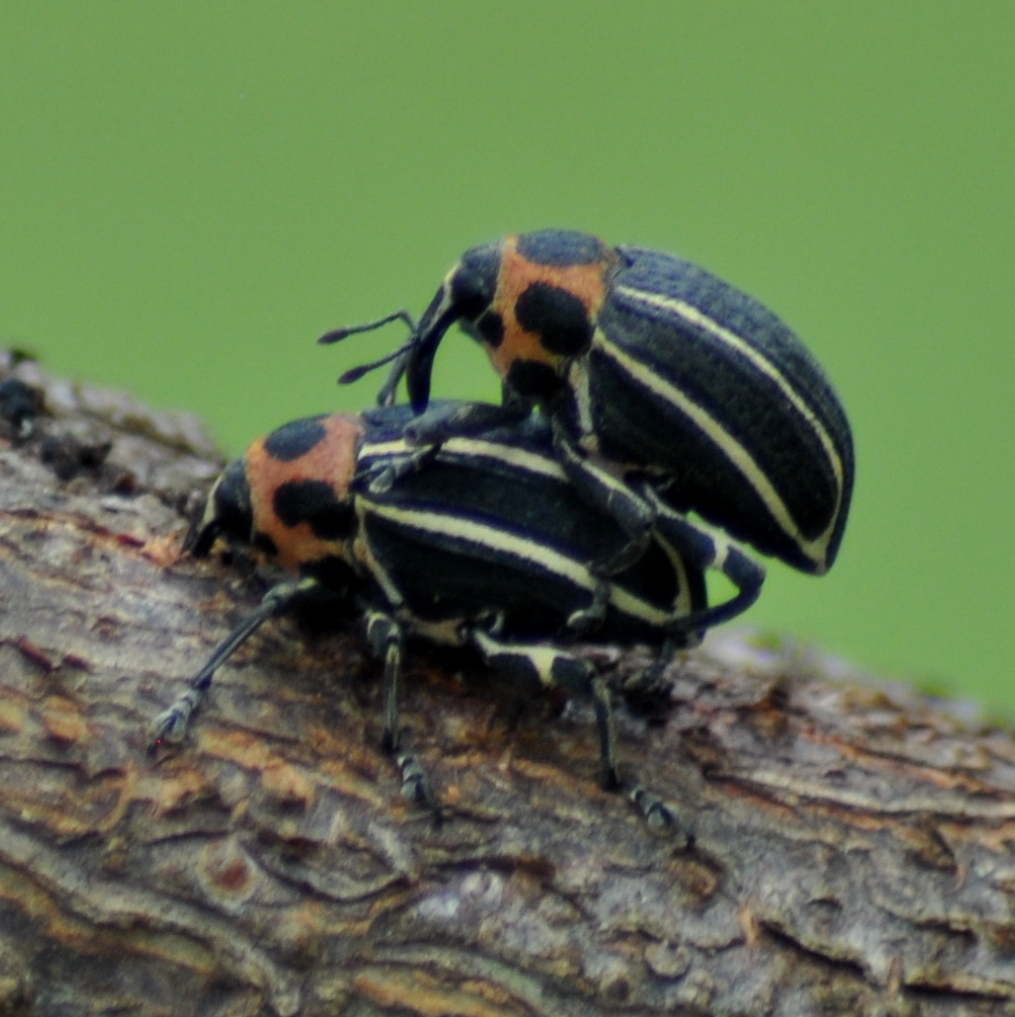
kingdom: Animalia
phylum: Arthropoda
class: Insecta
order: Coleoptera
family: Curculionidae
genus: Neodiplogrammus
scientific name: Neodiplogrammus
